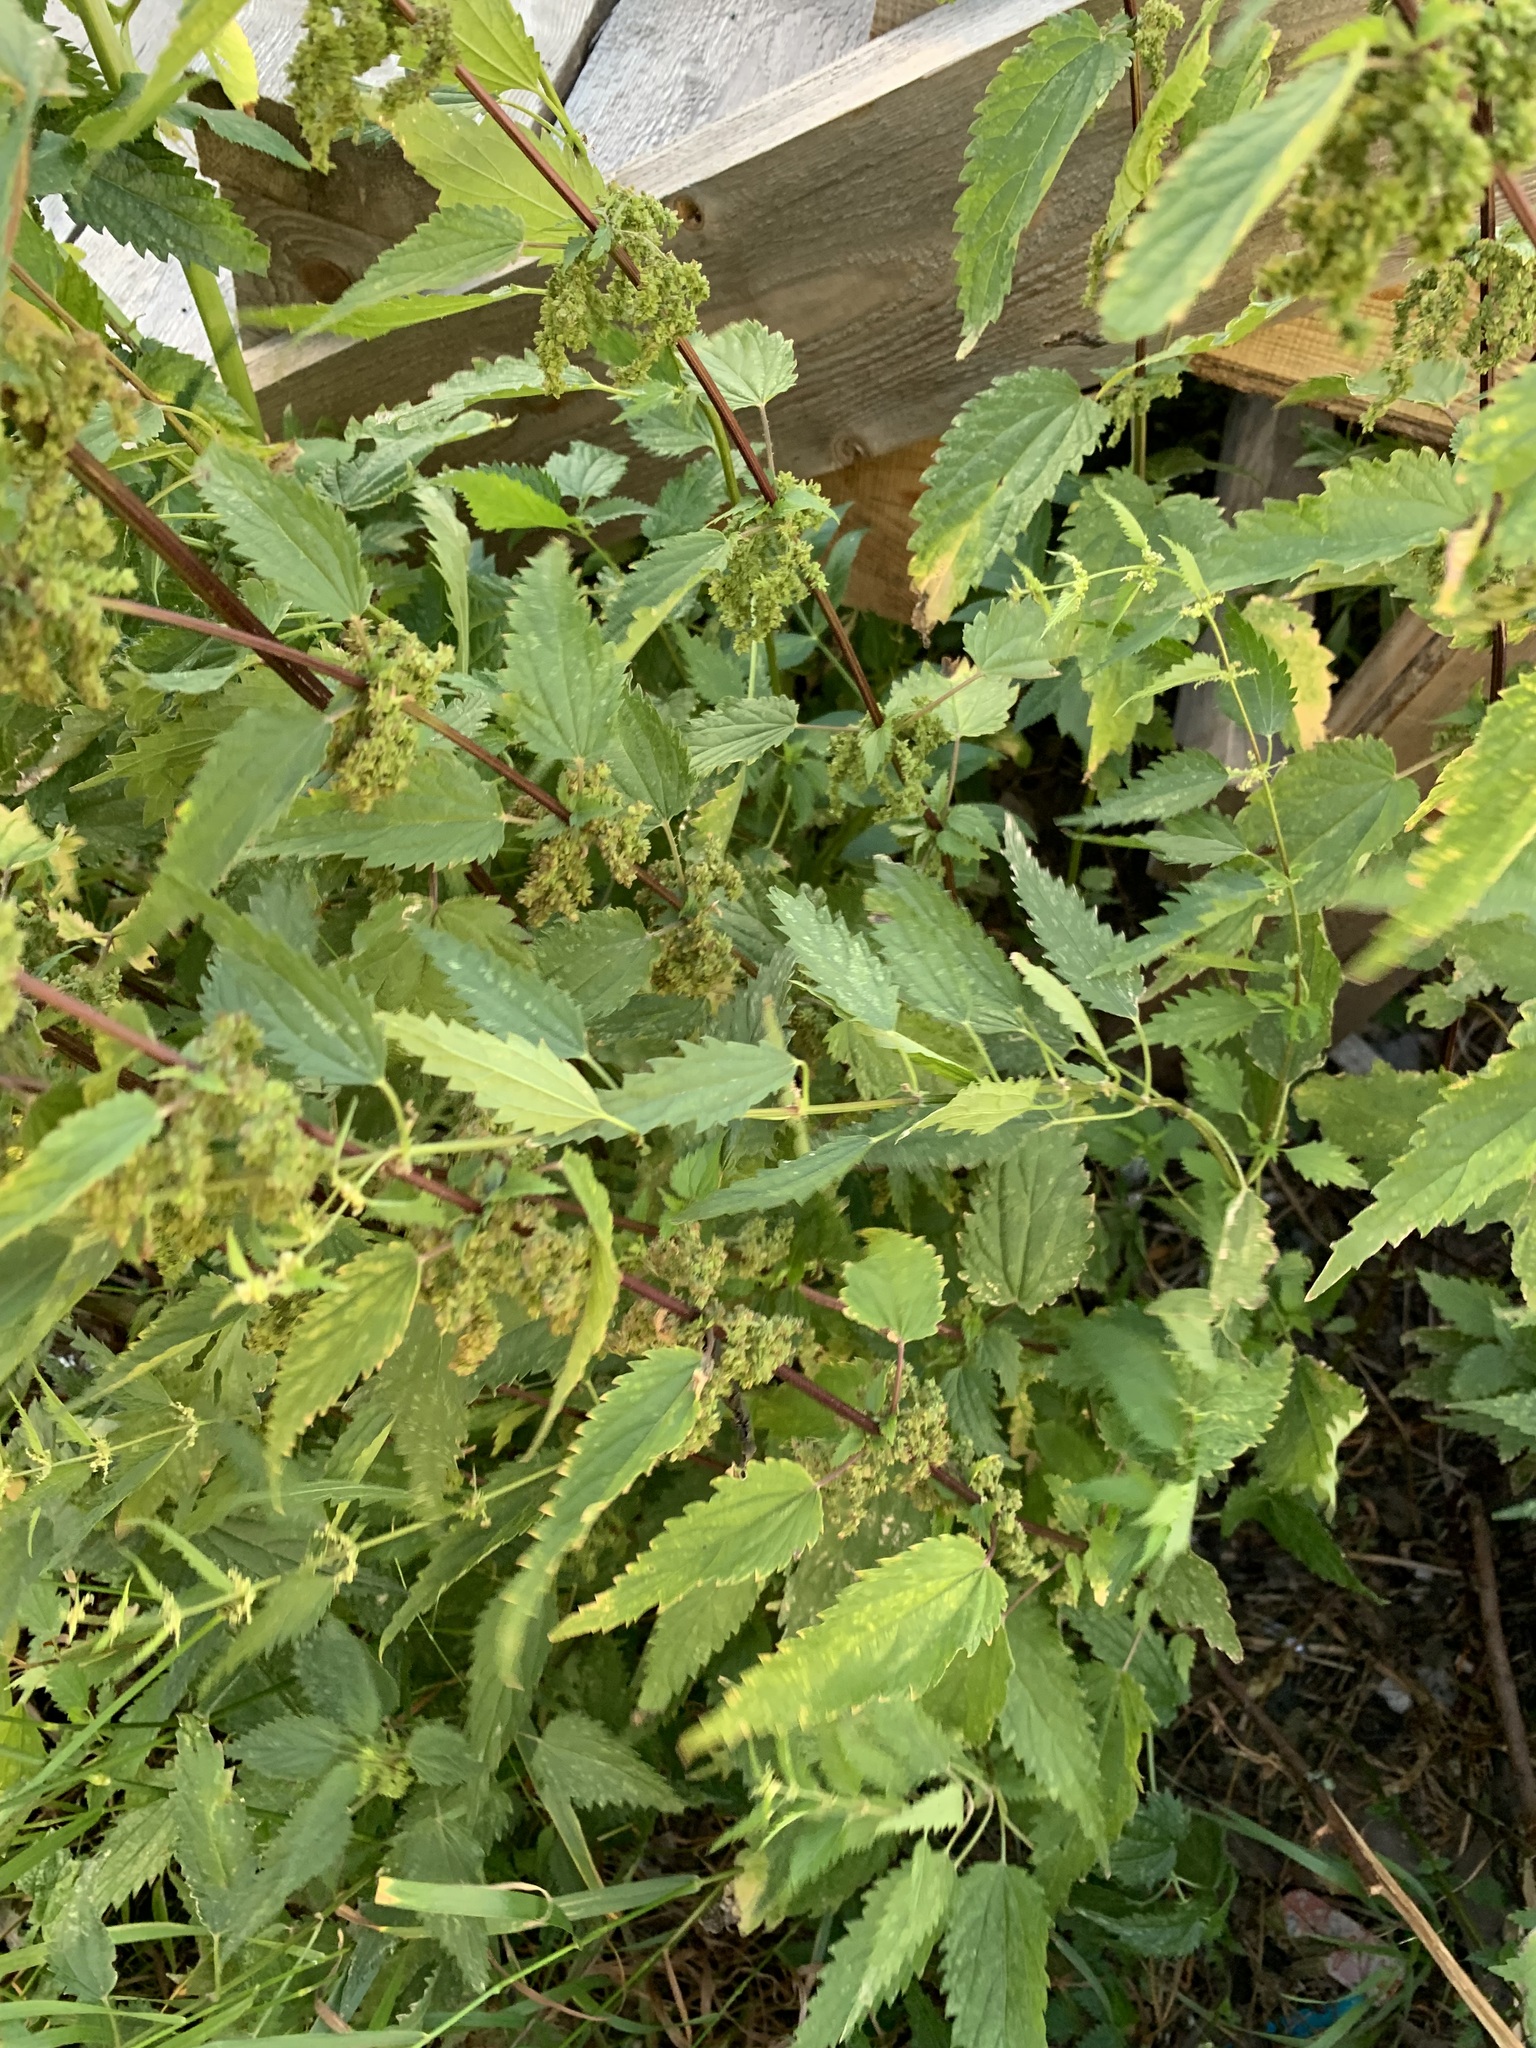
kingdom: Plantae
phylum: Tracheophyta
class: Magnoliopsida
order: Rosales
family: Urticaceae
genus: Urtica
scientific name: Urtica dioica
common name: Common nettle
